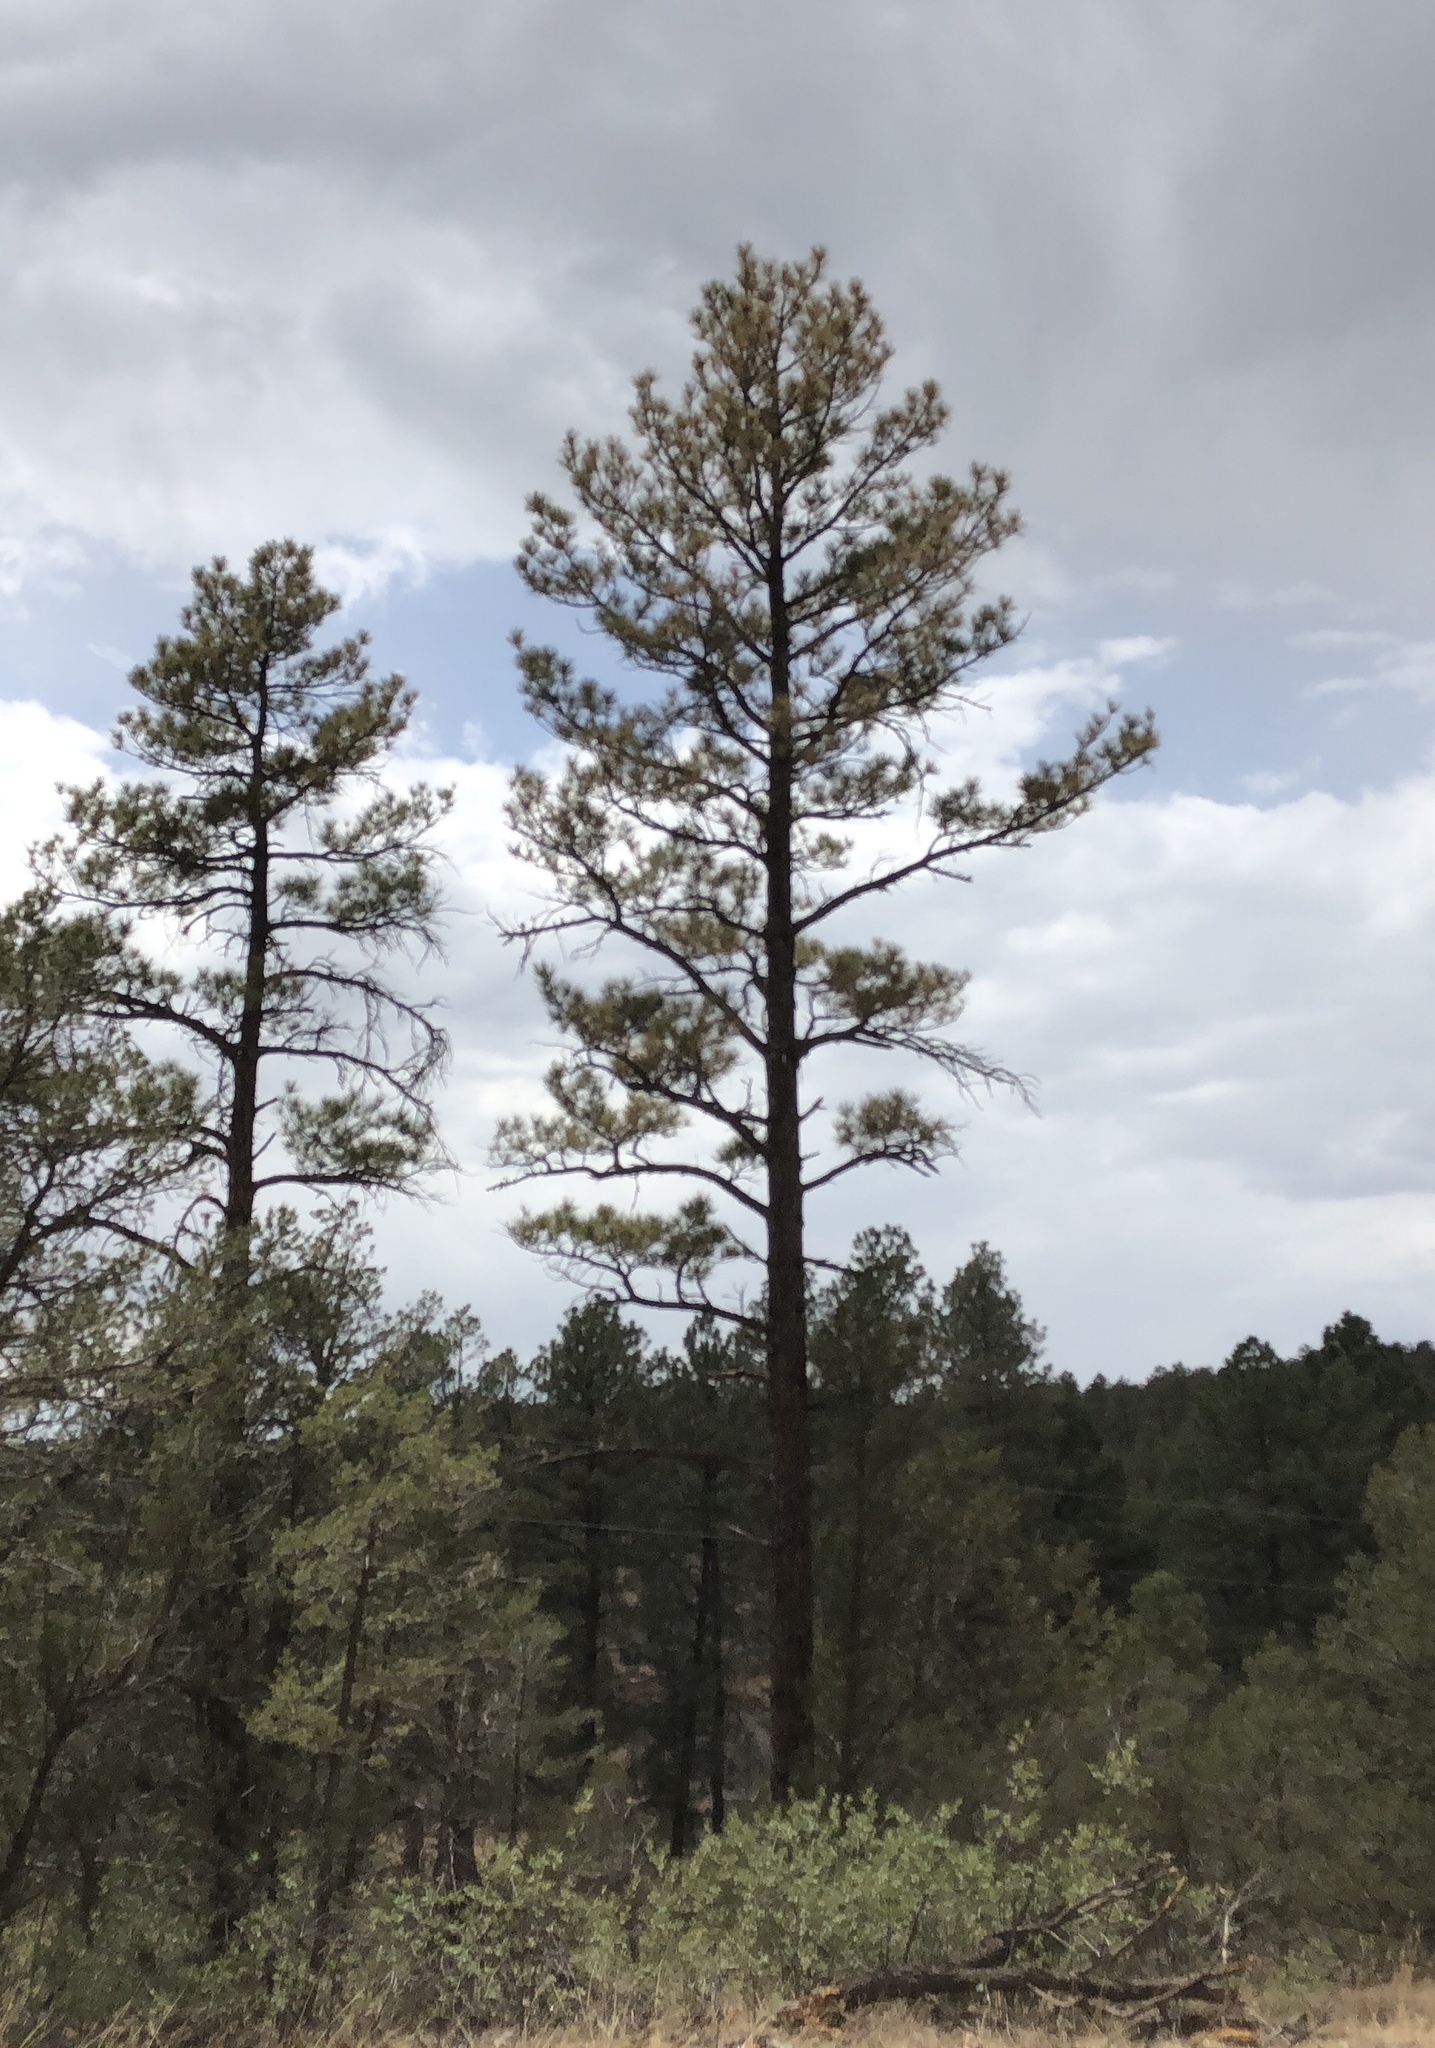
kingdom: Plantae
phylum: Tracheophyta
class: Pinopsida
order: Pinales
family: Pinaceae
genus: Pinus
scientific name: Pinus ponderosa
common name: Western yellow-pine
